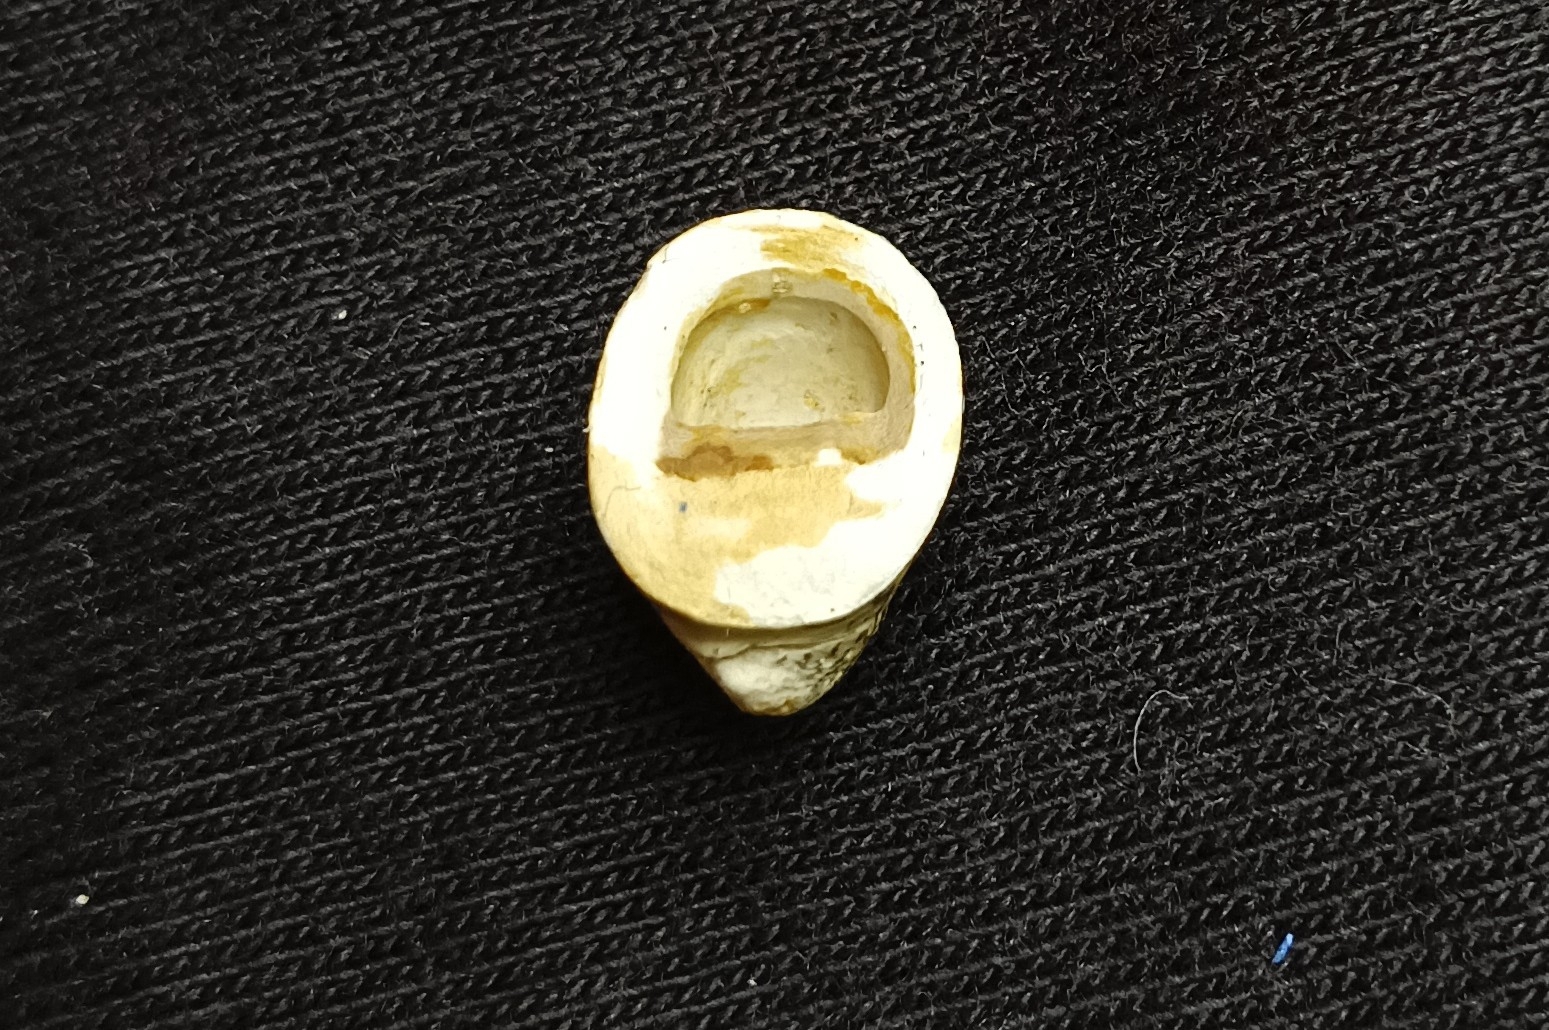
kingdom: Animalia
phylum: Mollusca
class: Gastropoda
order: Cycloneritida
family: Neritidae
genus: Neripteron
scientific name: Neripteron violaceum
